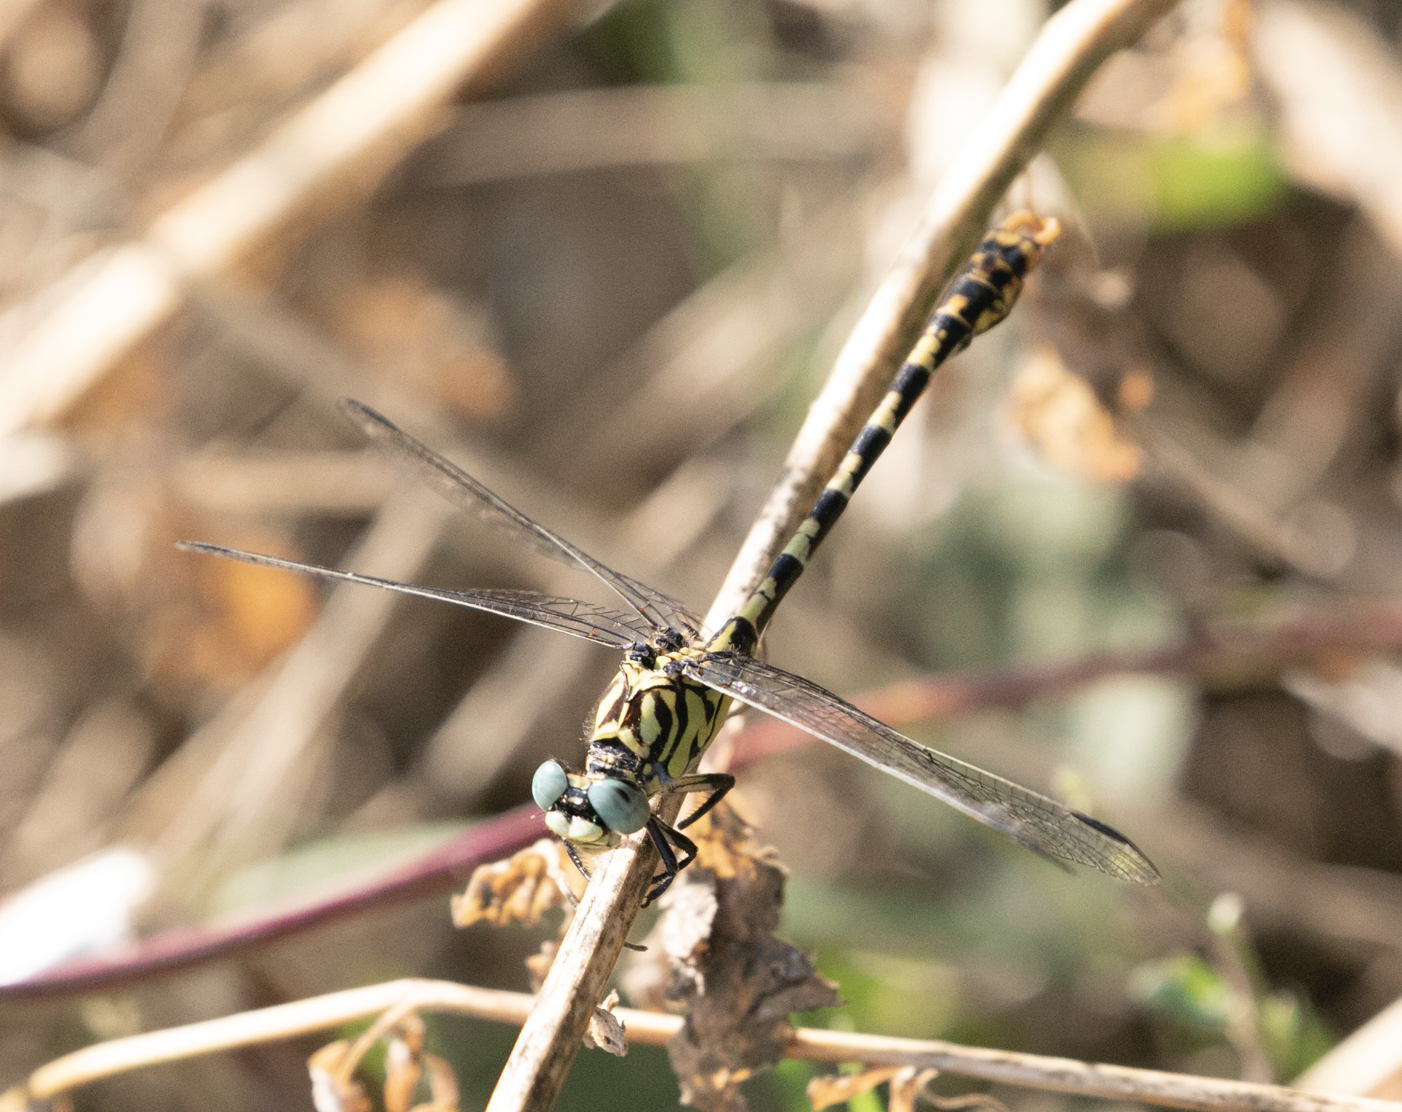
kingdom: Animalia
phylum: Arthropoda
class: Insecta
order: Odonata
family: Gomphidae
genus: Onychogomphus
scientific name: Onychogomphus forcipatus
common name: Small pincertail
